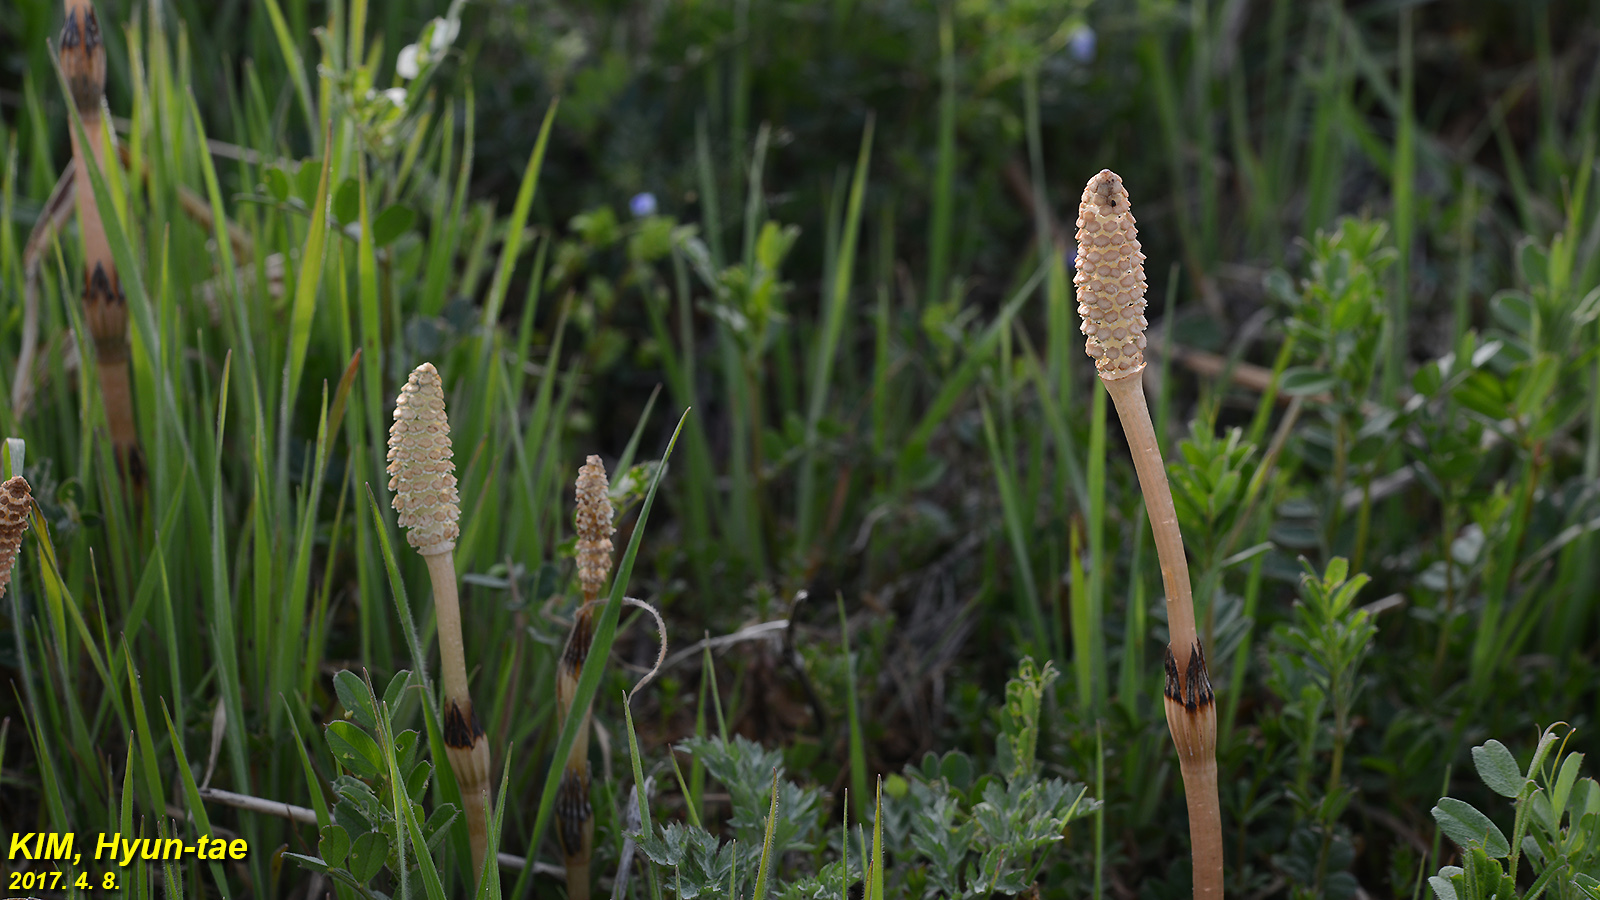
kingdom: Plantae
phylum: Tracheophyta
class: Polypodiopsida
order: Equisetales
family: Equisetaceae
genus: Equisetum
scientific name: Equisetum arvense
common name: Field horsetail
